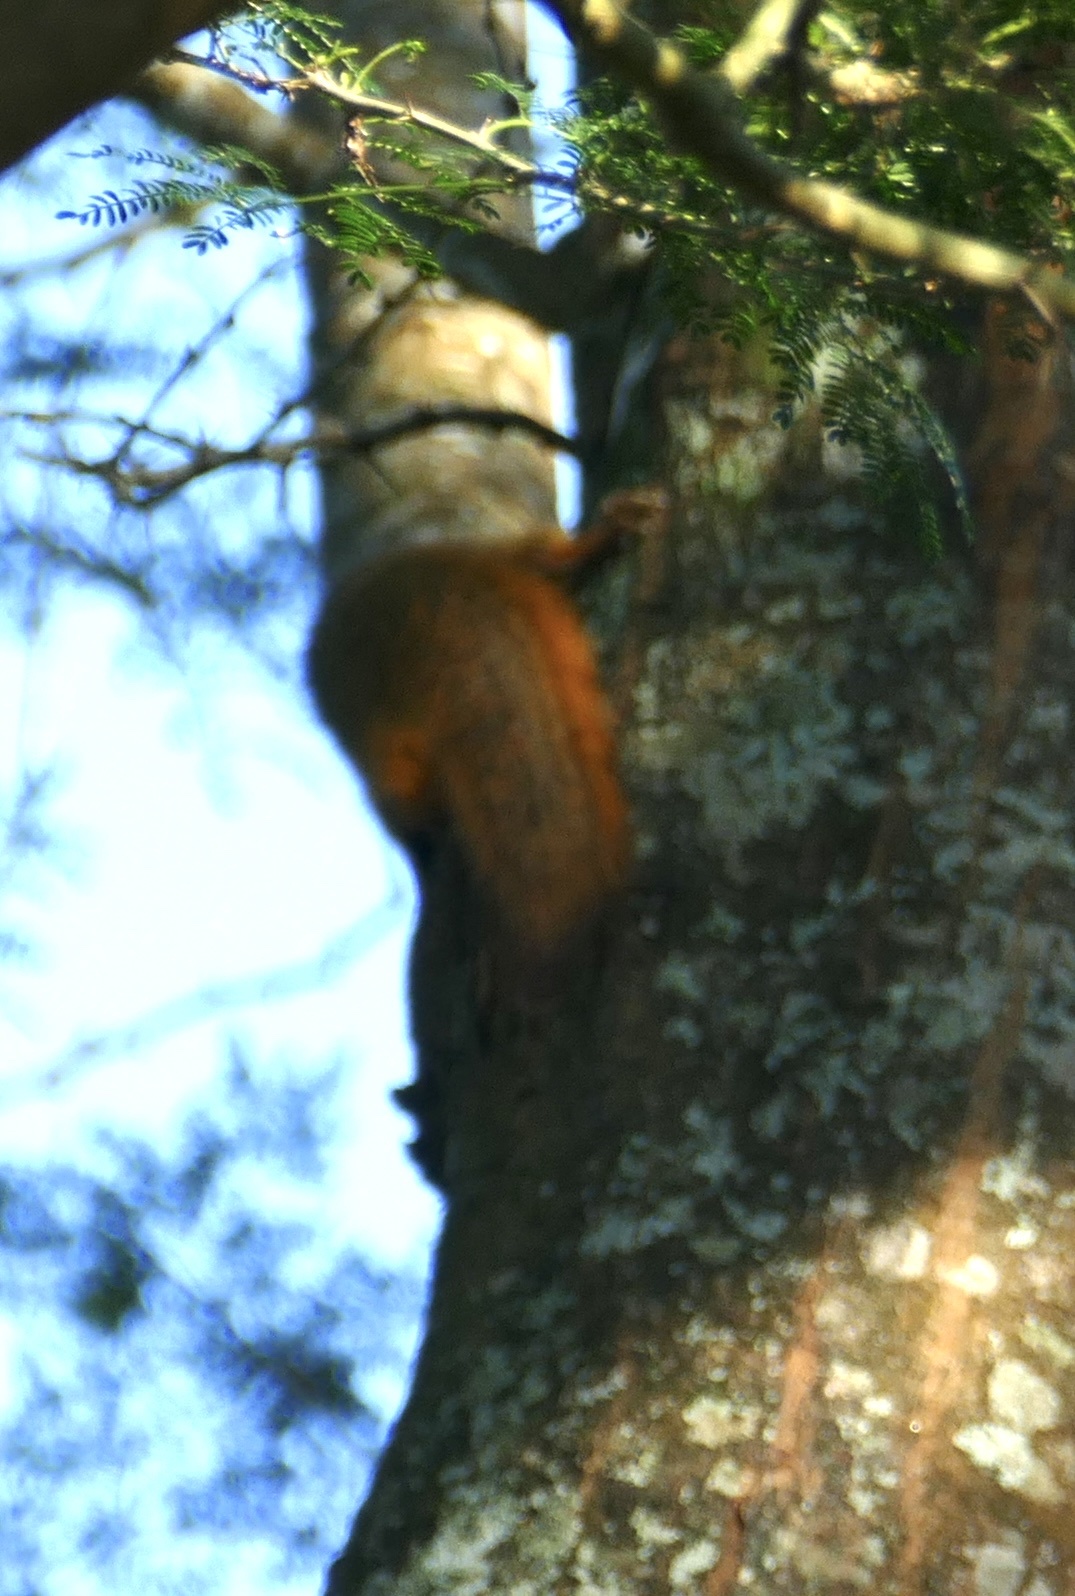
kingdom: Animalia
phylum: Chordata
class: Mammalia
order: Rodentia
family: Sciuridae
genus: Paraxerus
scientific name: Paraxerus palliatus
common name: Red bush squirrel
